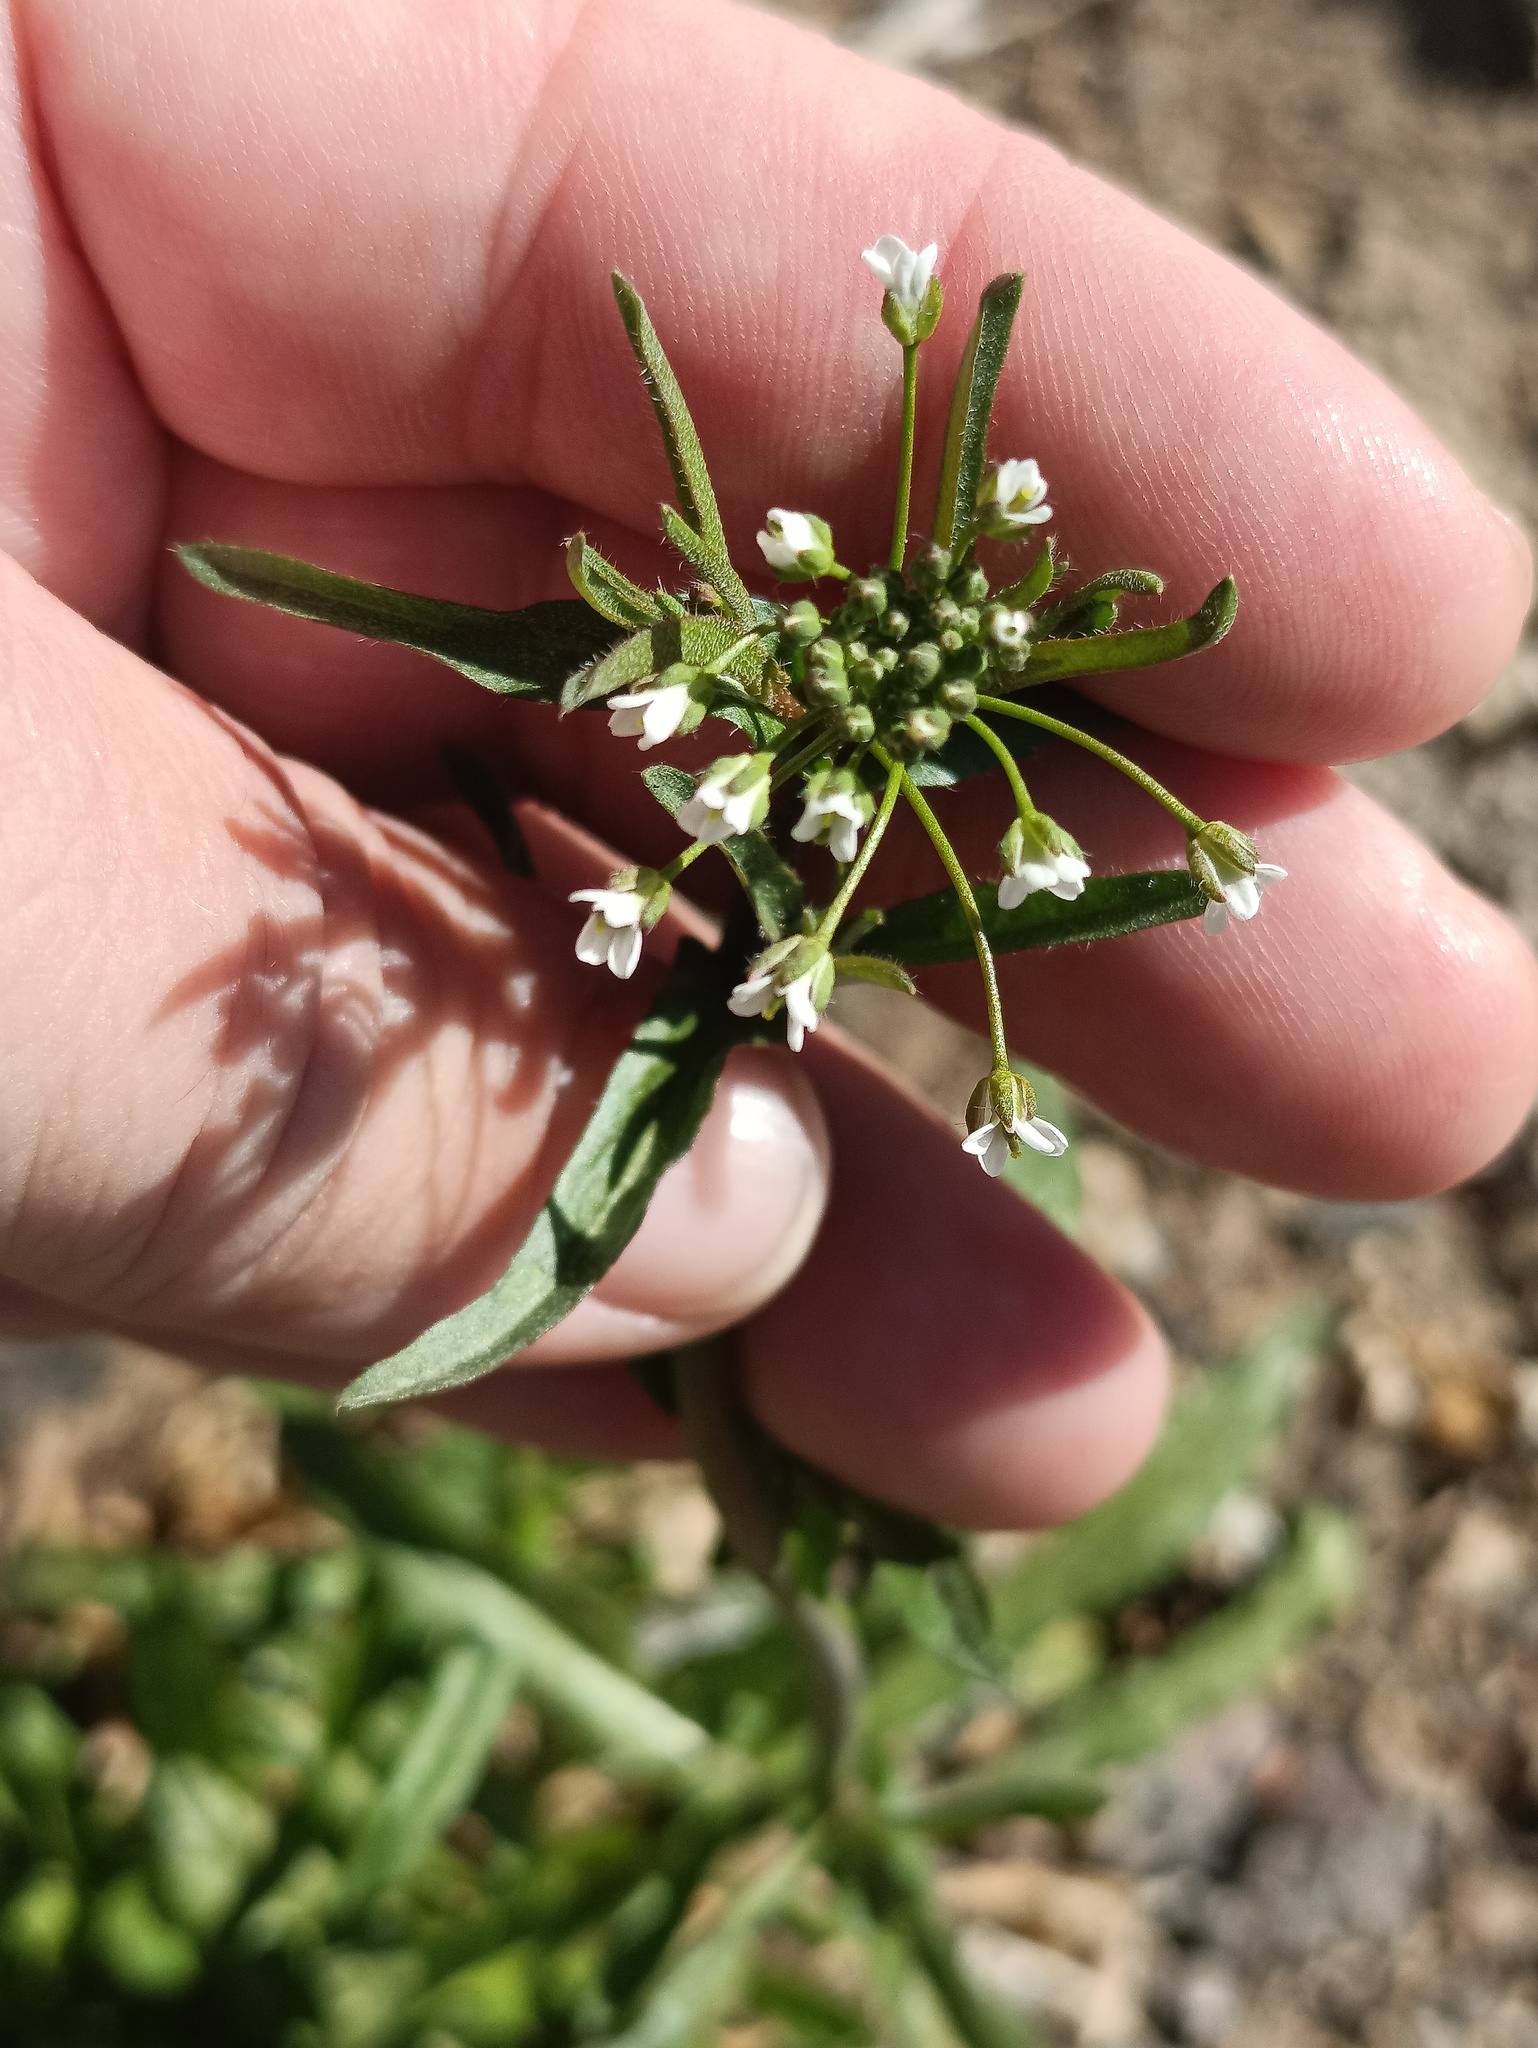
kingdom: Plantae
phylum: Tracheophyta
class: Magnoliopsida
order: Brassicales
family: Brassicaceae
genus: Capsella
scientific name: Capsella bursa-pastoris
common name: Shepherd's purse
